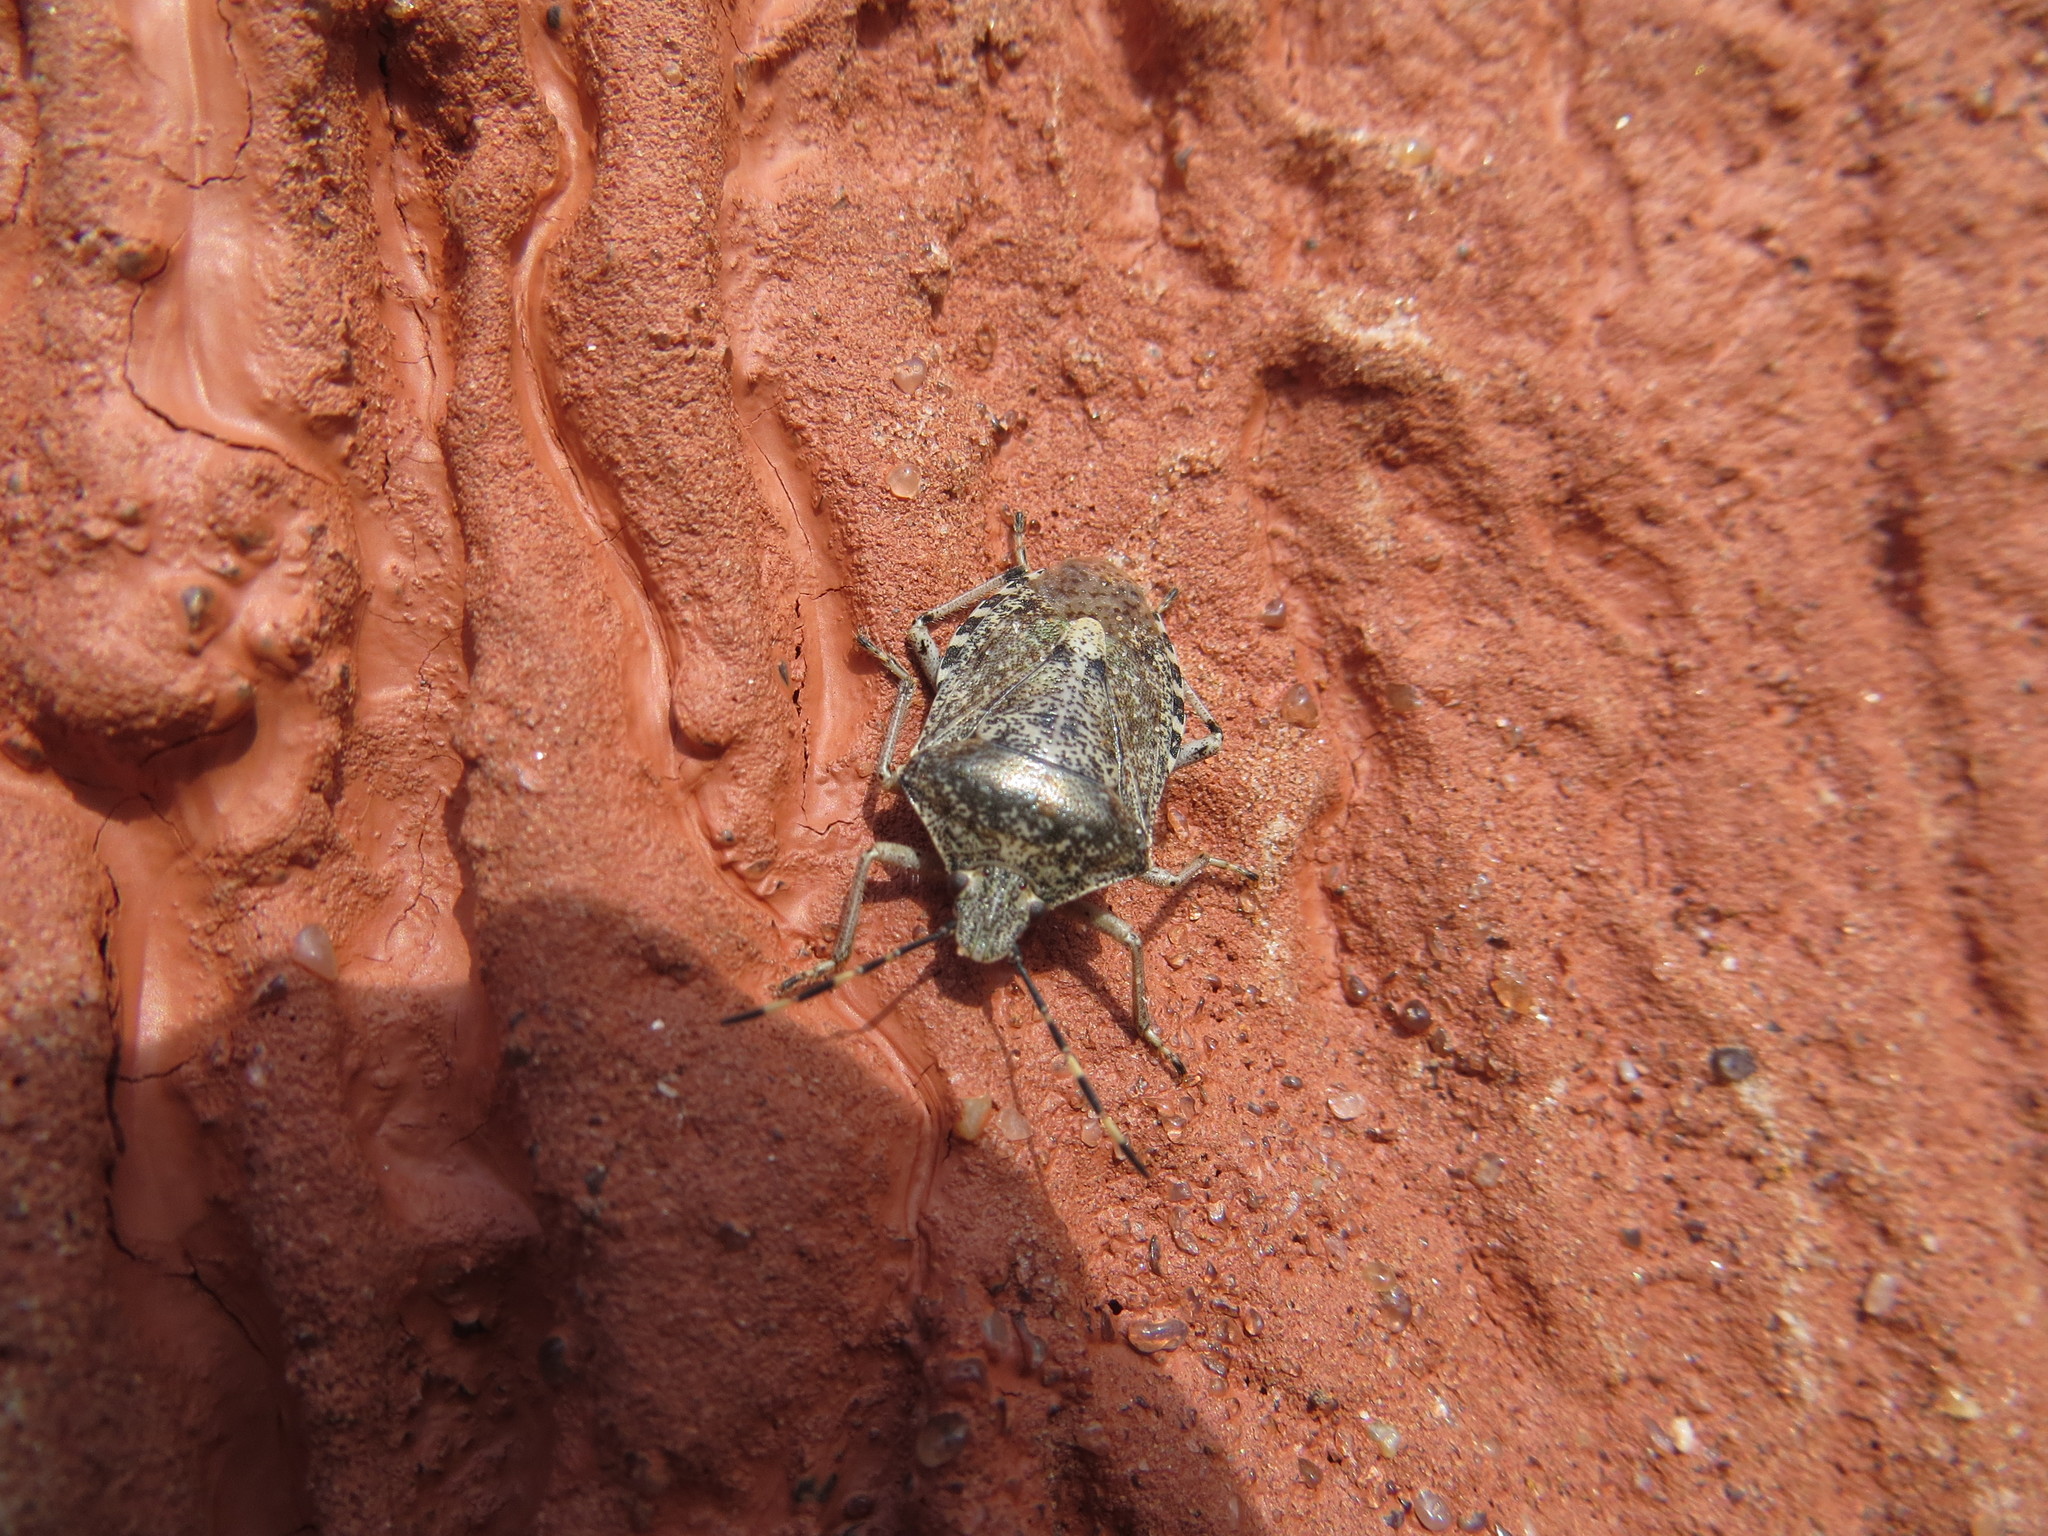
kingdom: Animalia
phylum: Arthropoda
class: Insecta
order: Hemiptera
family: Pentatomidae
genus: Rhaphigaster
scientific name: Rhaphigaster nebulosa
